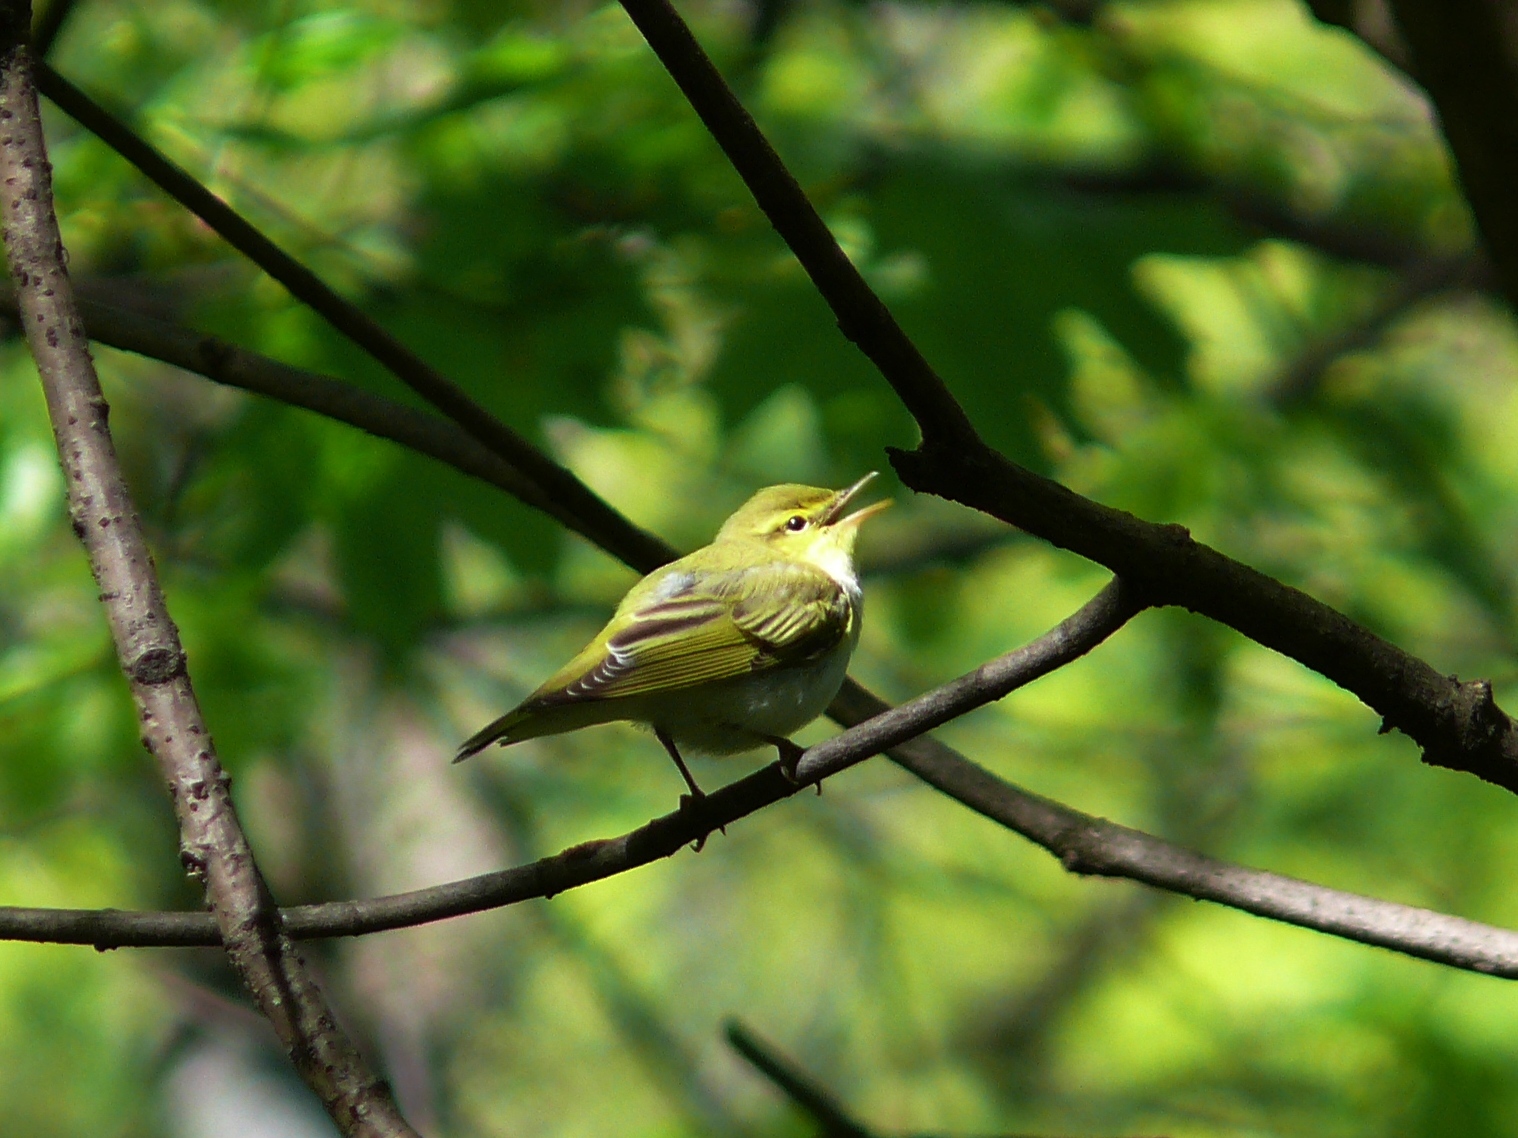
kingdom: Animalia
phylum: Chordata
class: Aves
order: Passeriformes
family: Phylloscopidae
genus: Phylloscopus
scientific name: Phylloscopus sibillatrix
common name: Wood warbler
